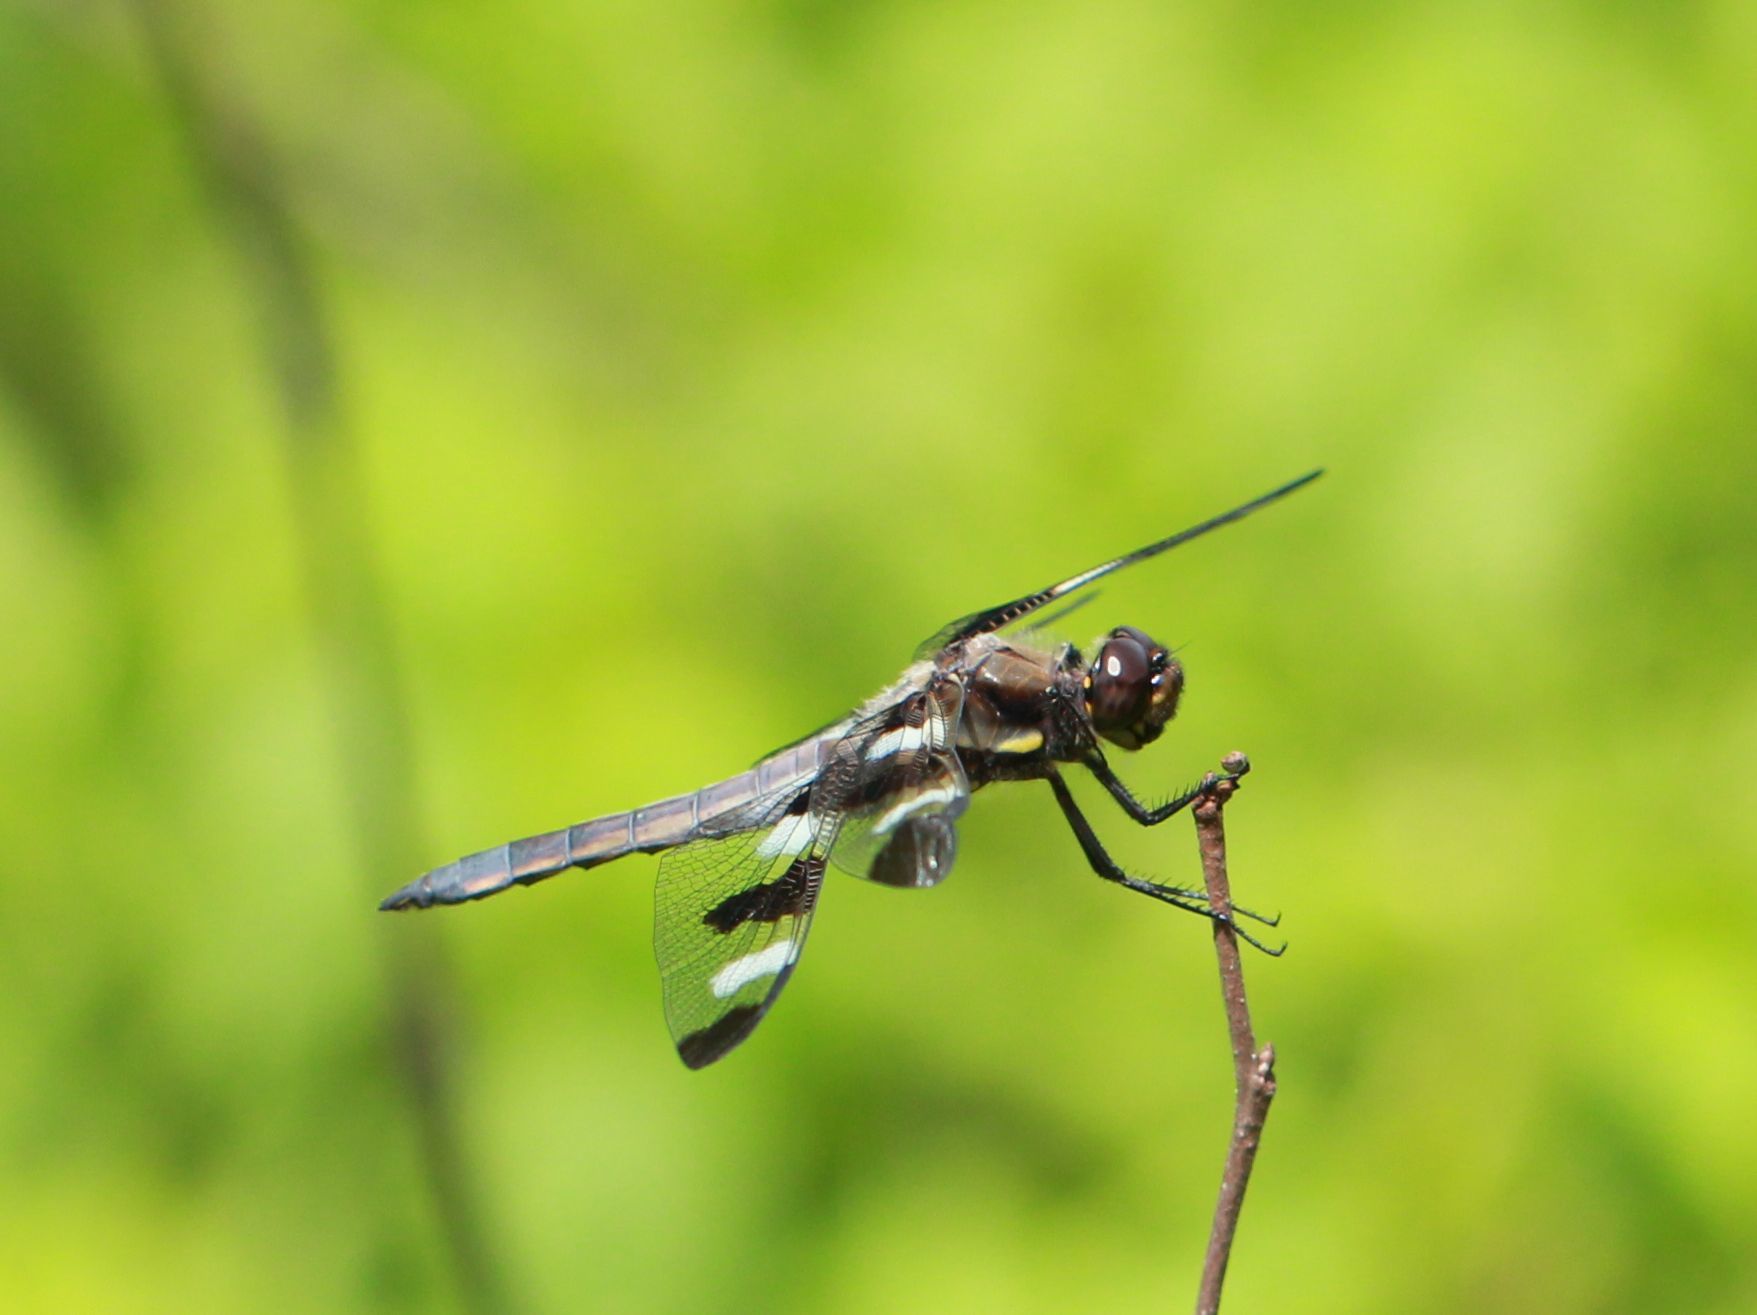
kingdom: Animalia
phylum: Arthropoda
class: Insecta
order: Odonata
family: Libellulidae
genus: Libellula
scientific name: Libellula pulchella
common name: Twelve-spotted skimmer
